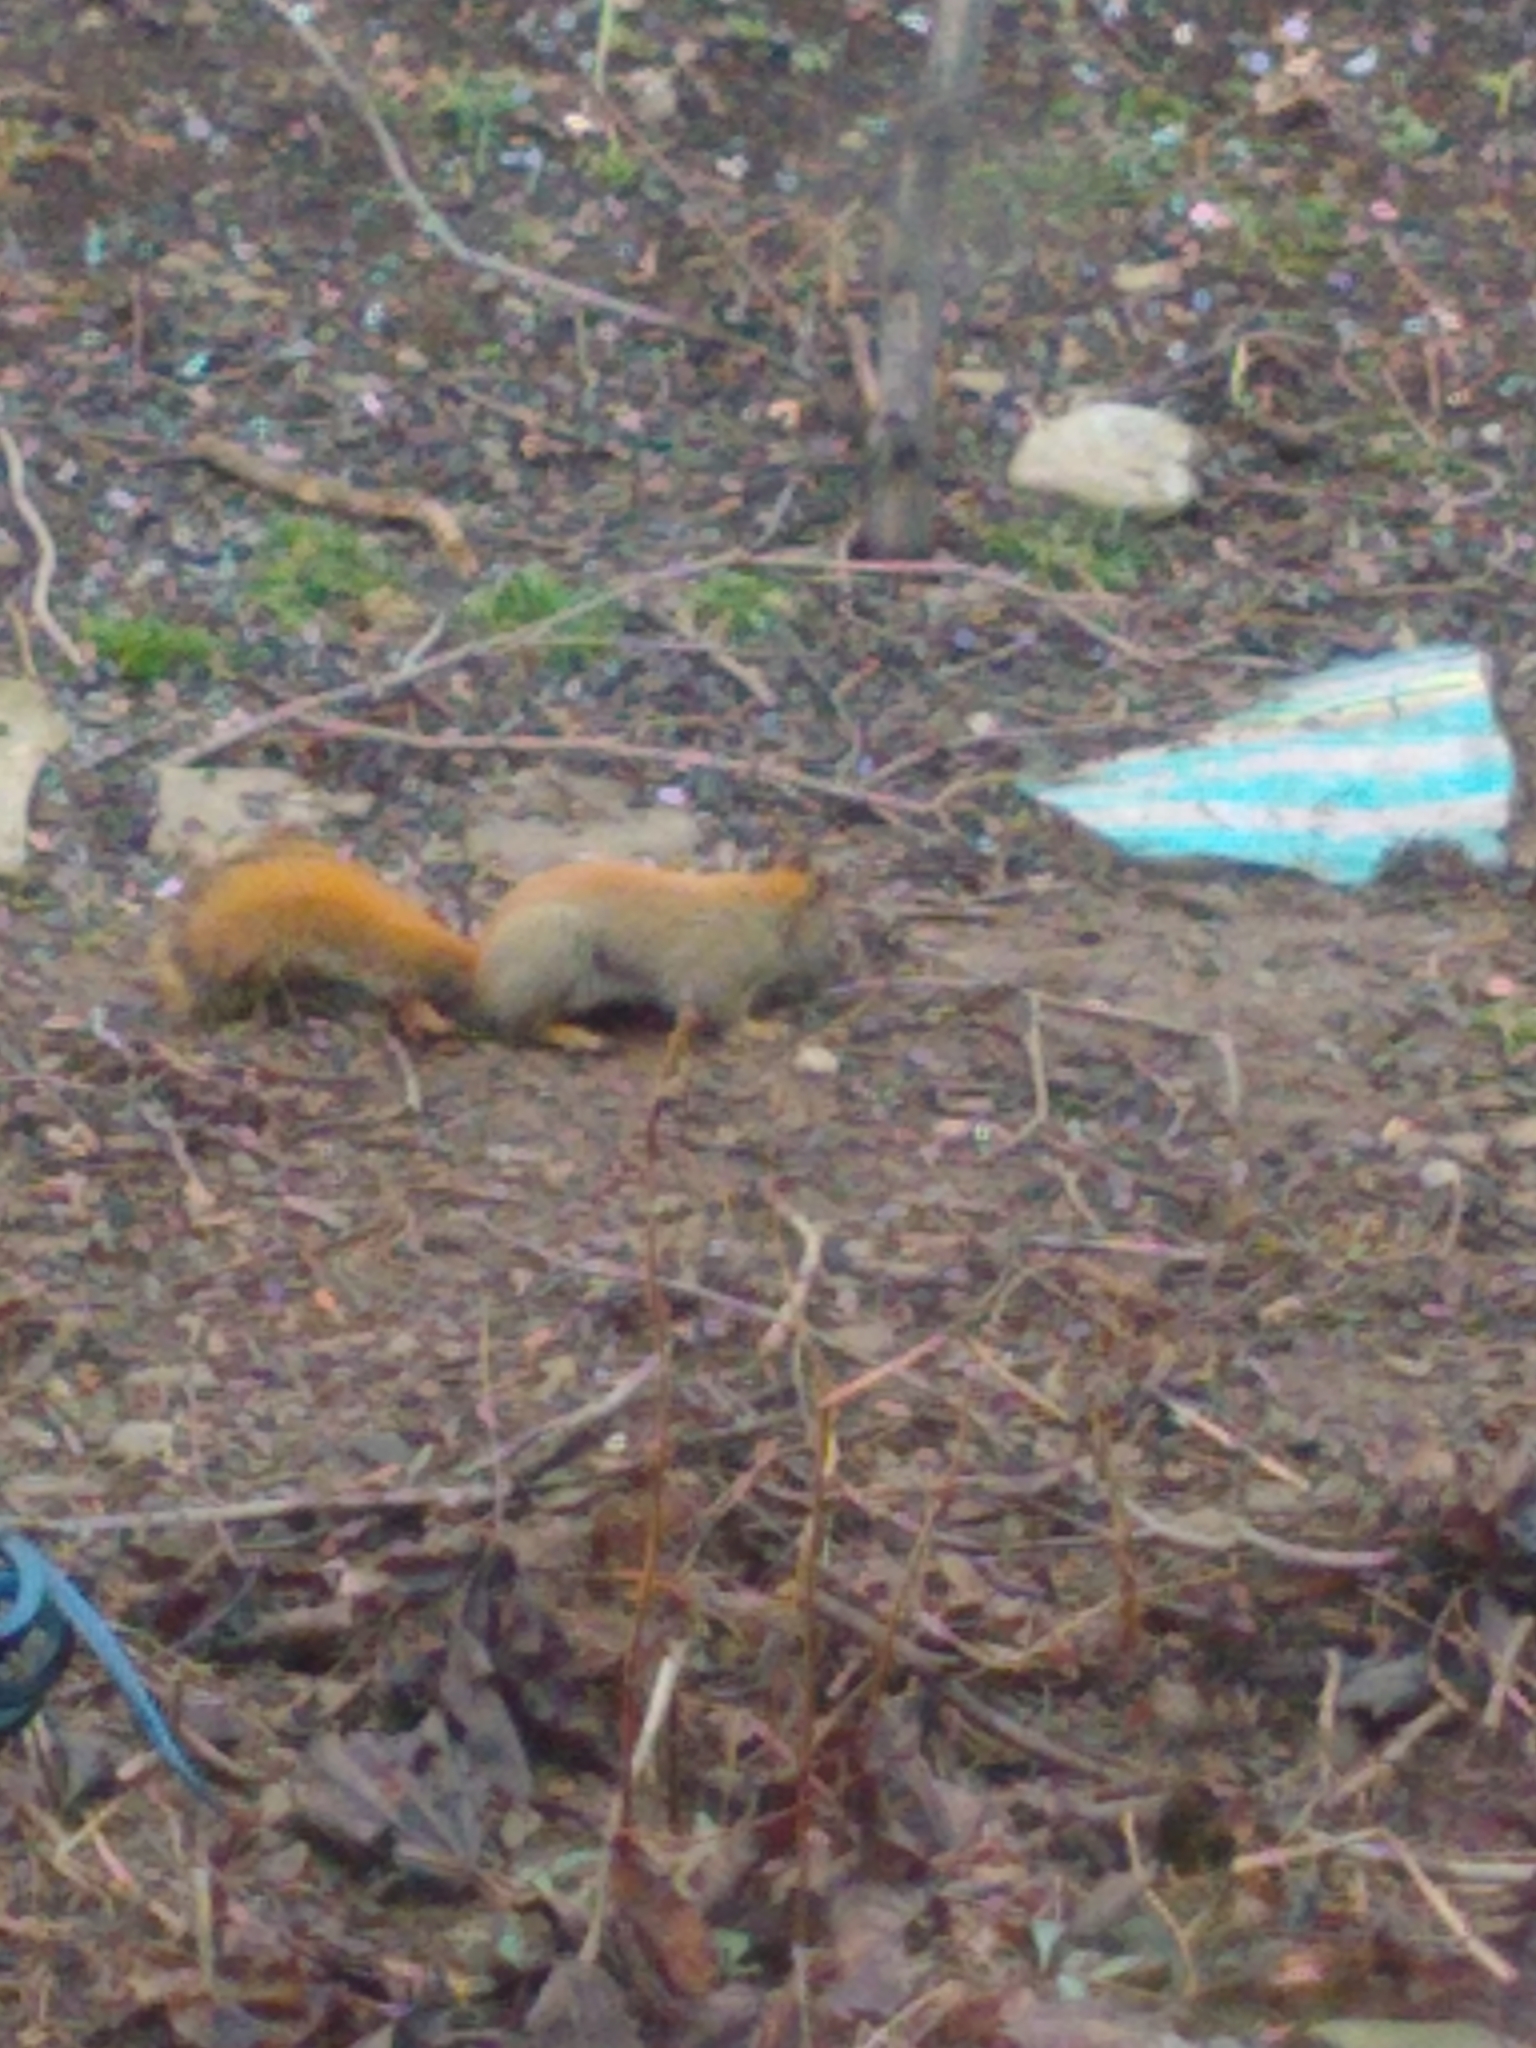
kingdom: Animalia
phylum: Chordata
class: Mammalia
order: Rodentia
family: Sciuridae
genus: Tamiasciurus
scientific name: Tamiasciurus hudsonicus
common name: Red squirrel
